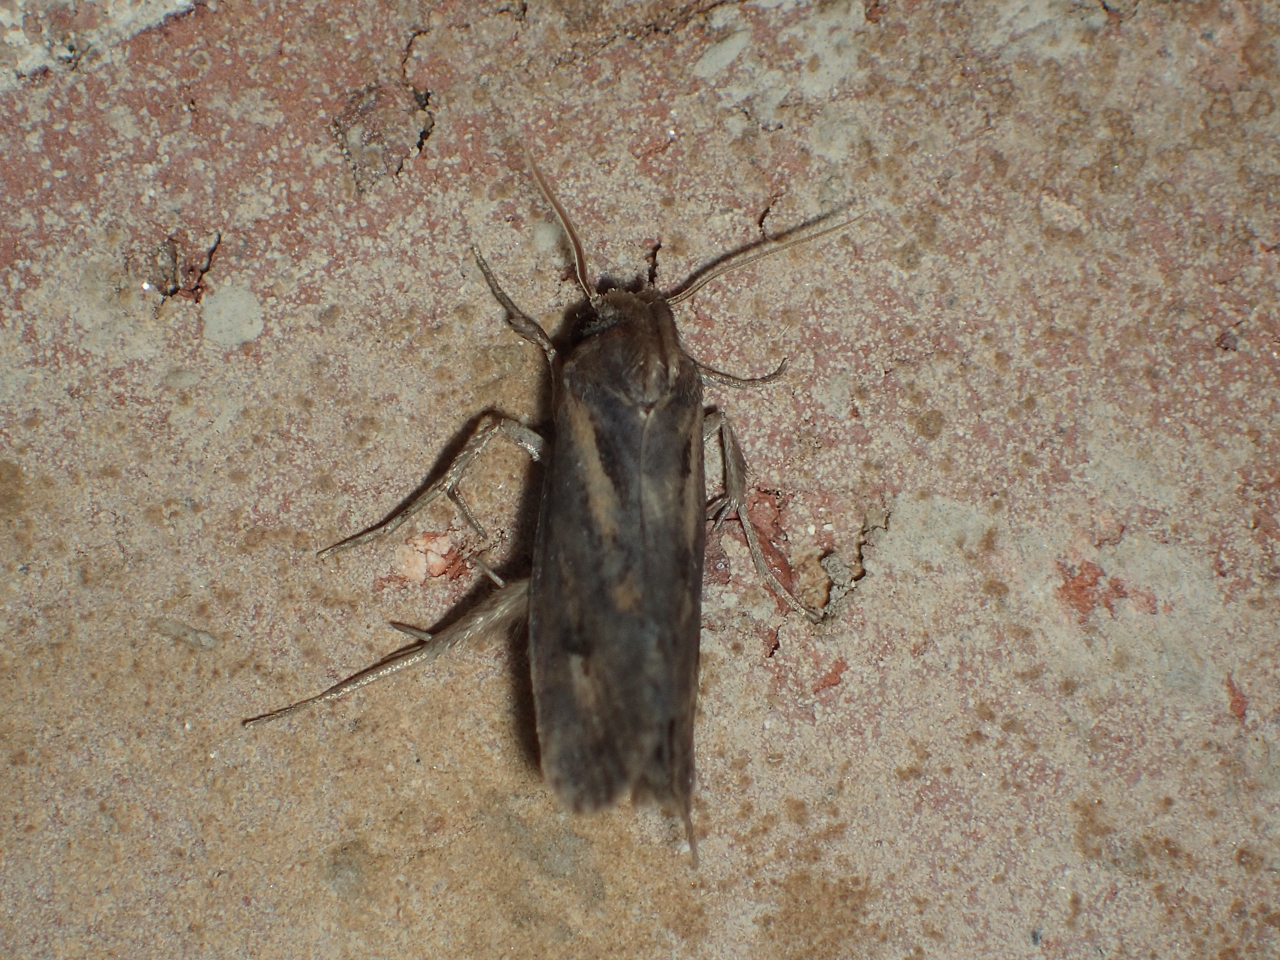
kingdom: Animalia
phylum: Arthropoda
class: Insecta
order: Lepidoptera
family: Tineidae
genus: Acrolophus
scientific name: Acrolophus popeanella
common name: Clemens' grass tubeworm moth
